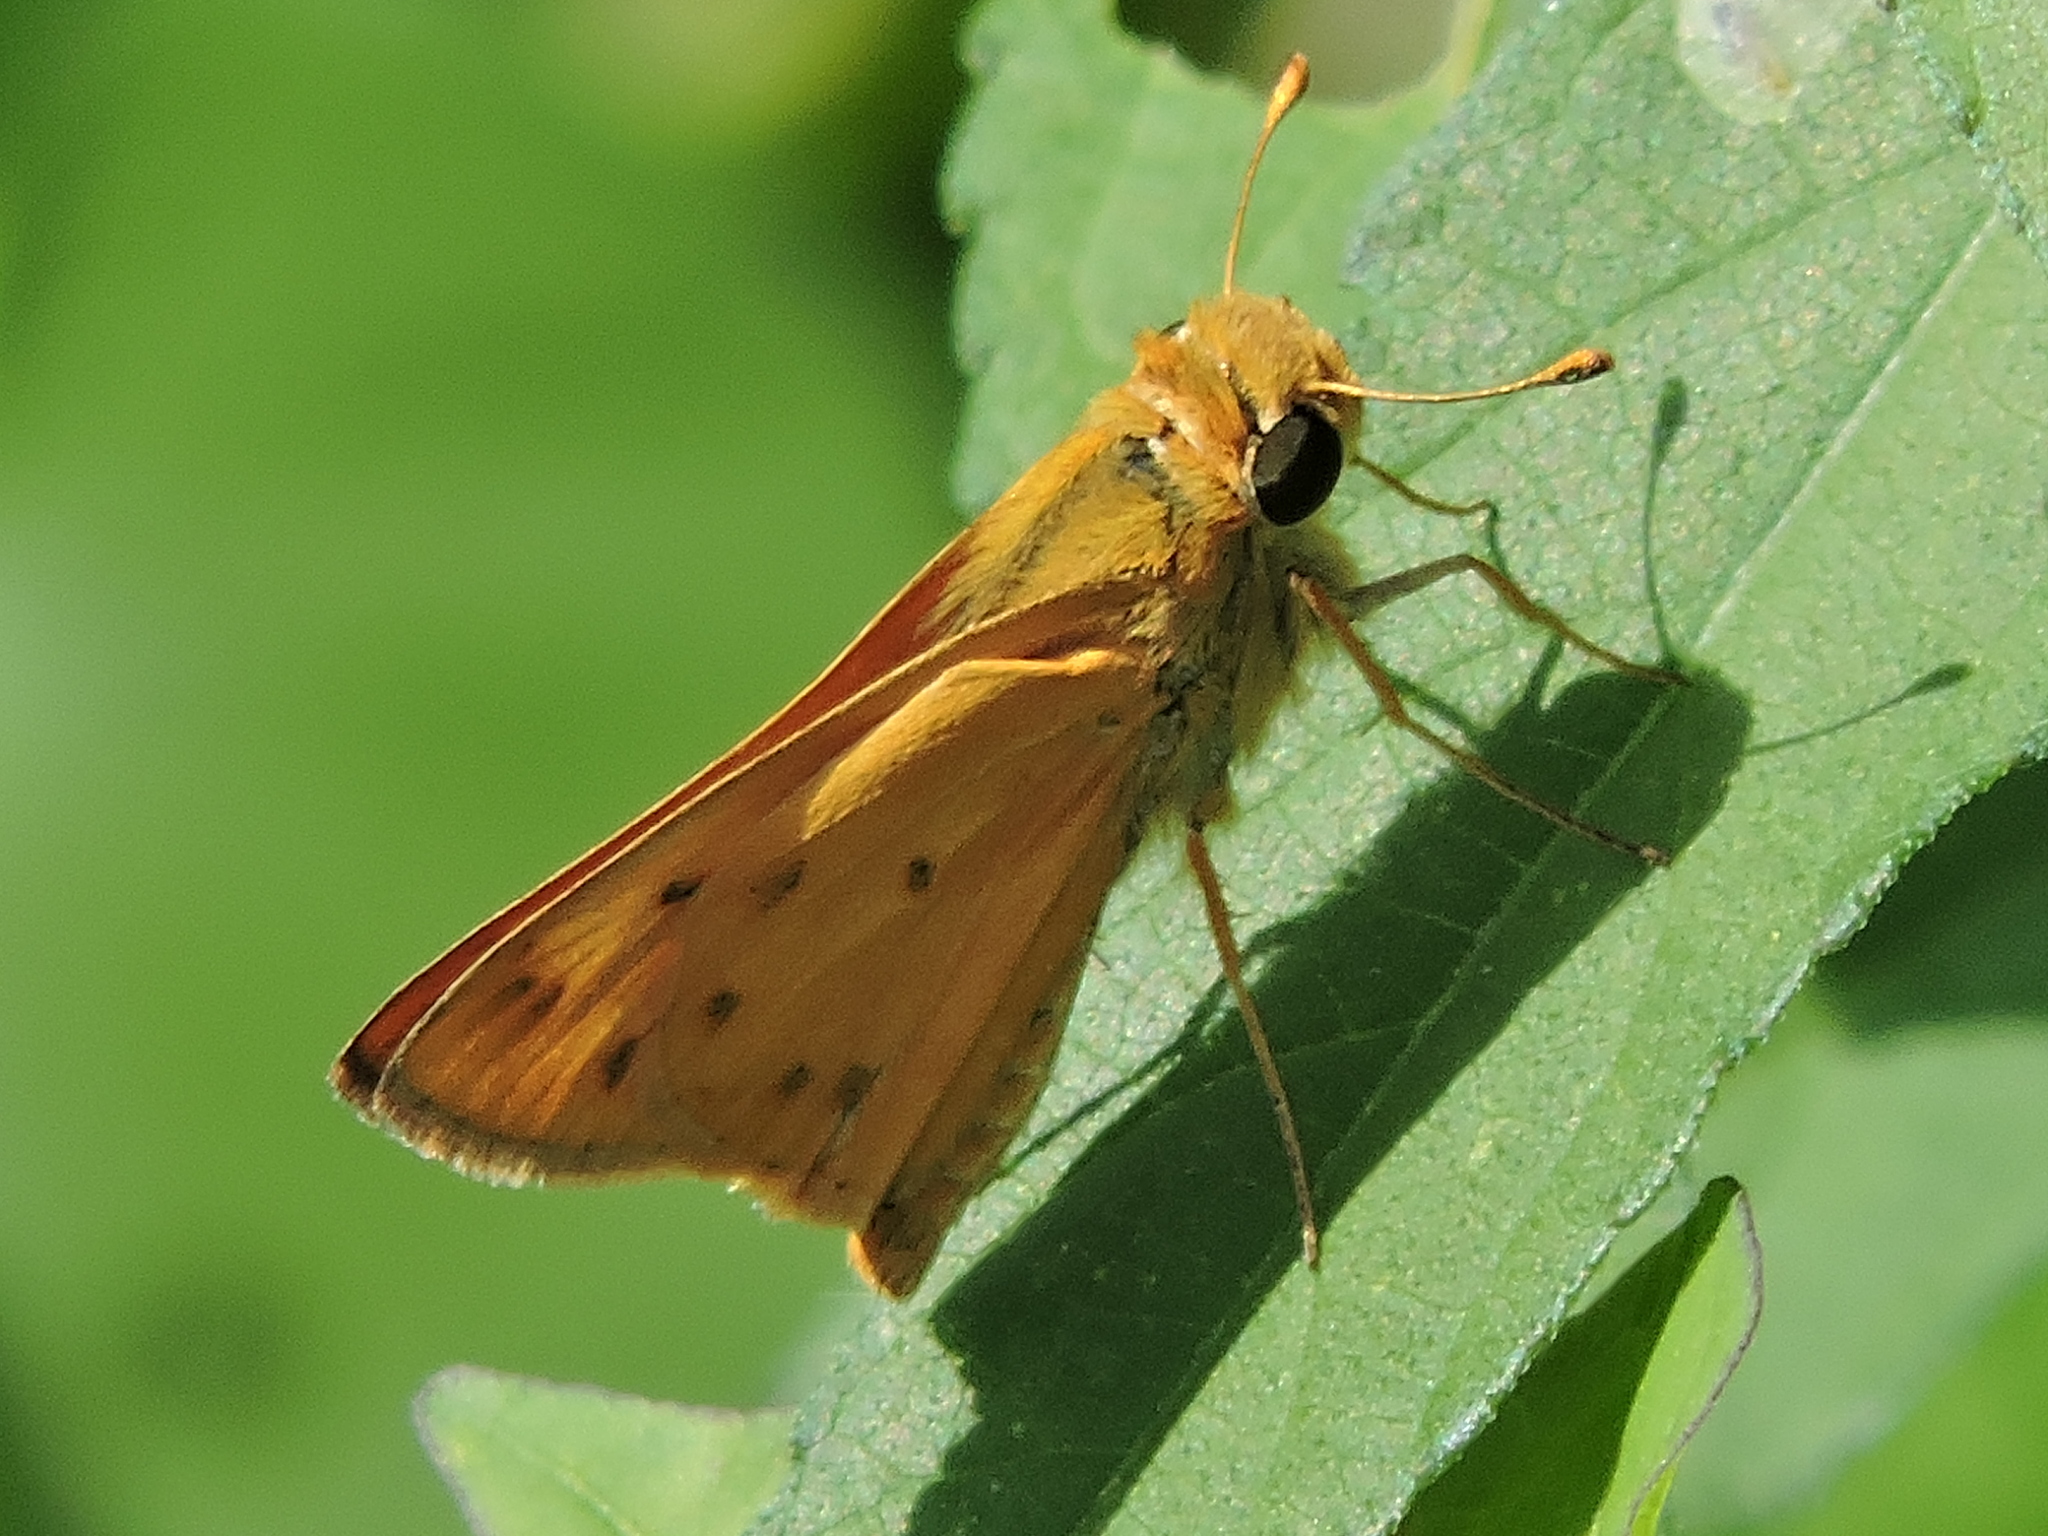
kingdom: Animalia
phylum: Arthropoda
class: Insecta
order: Lepidoptera
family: Hesperiidae
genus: Hylephila
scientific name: Hylephila phyleus
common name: Fiery skipper
